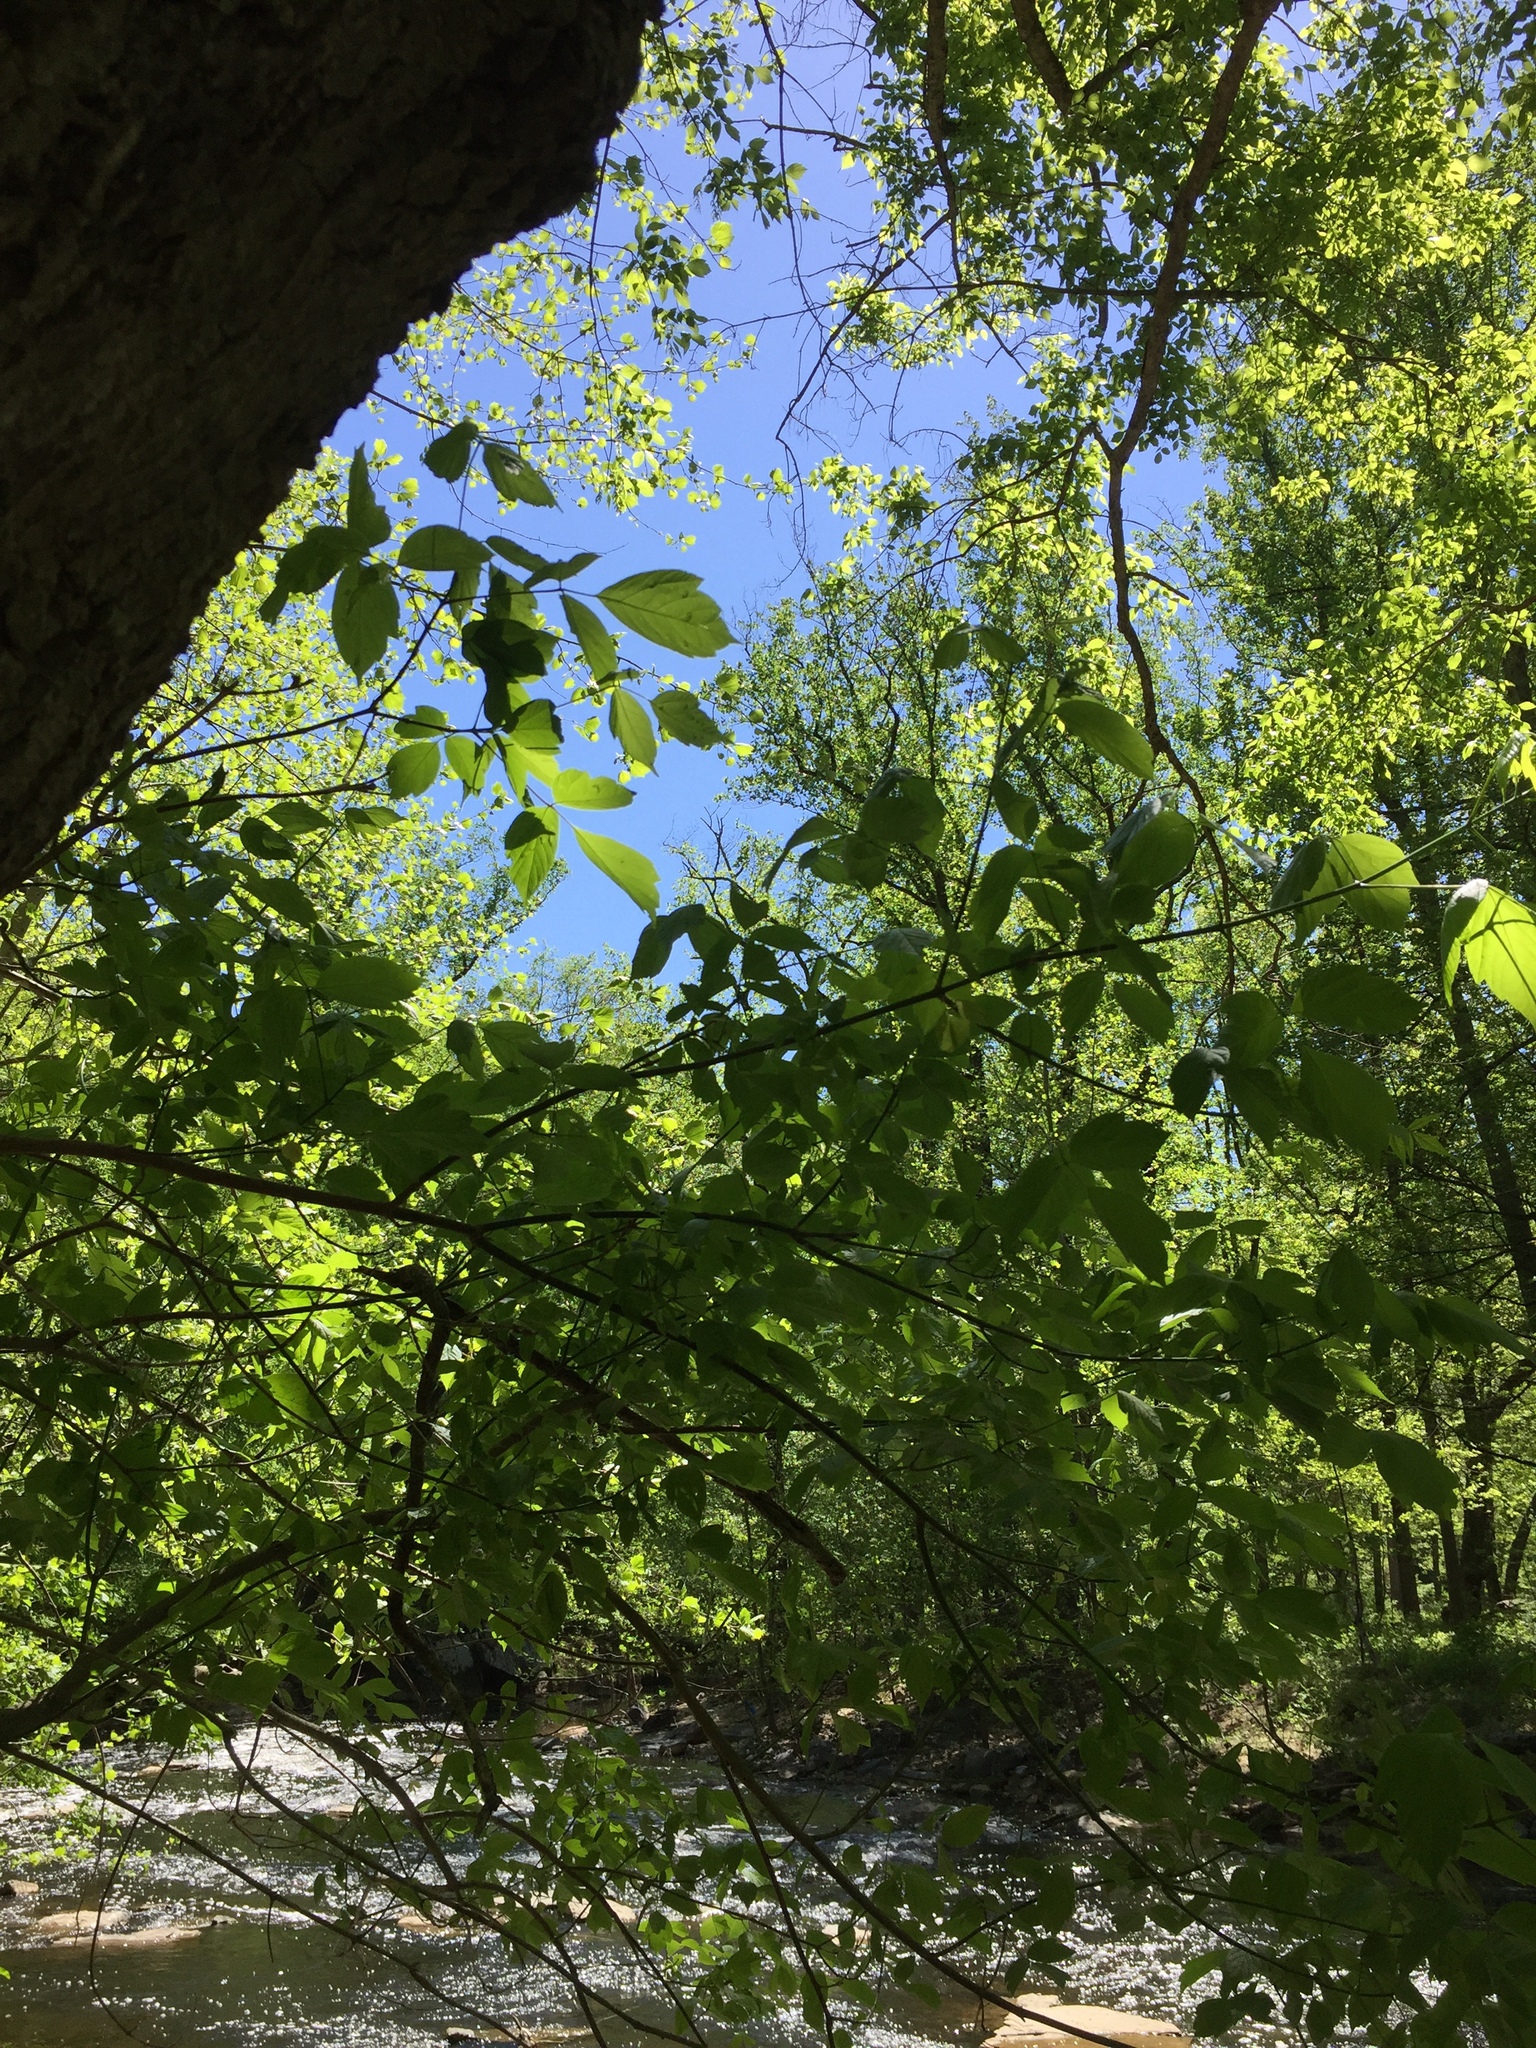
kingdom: Plantae
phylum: Tracheophyta
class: Magnoliopsida
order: Sapindales
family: Sapindaceae
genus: Acer
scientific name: Acer negundo
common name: Ashleaf maple
